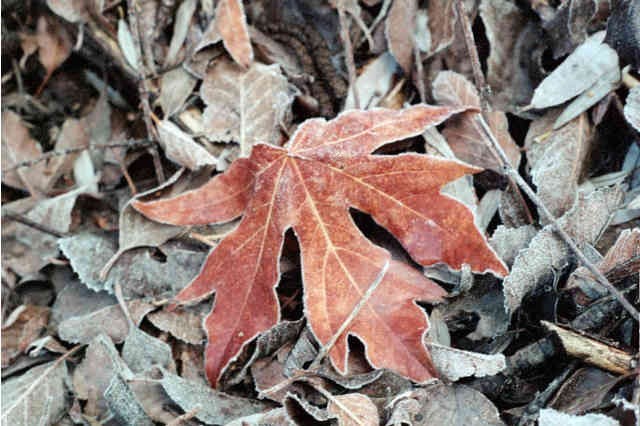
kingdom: Plantae
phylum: Tracheophyta
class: Magnoliopsida
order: Sapindales
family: Sapindaceae
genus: Acer
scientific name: Acer macrophyllum
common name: Oregon maple
